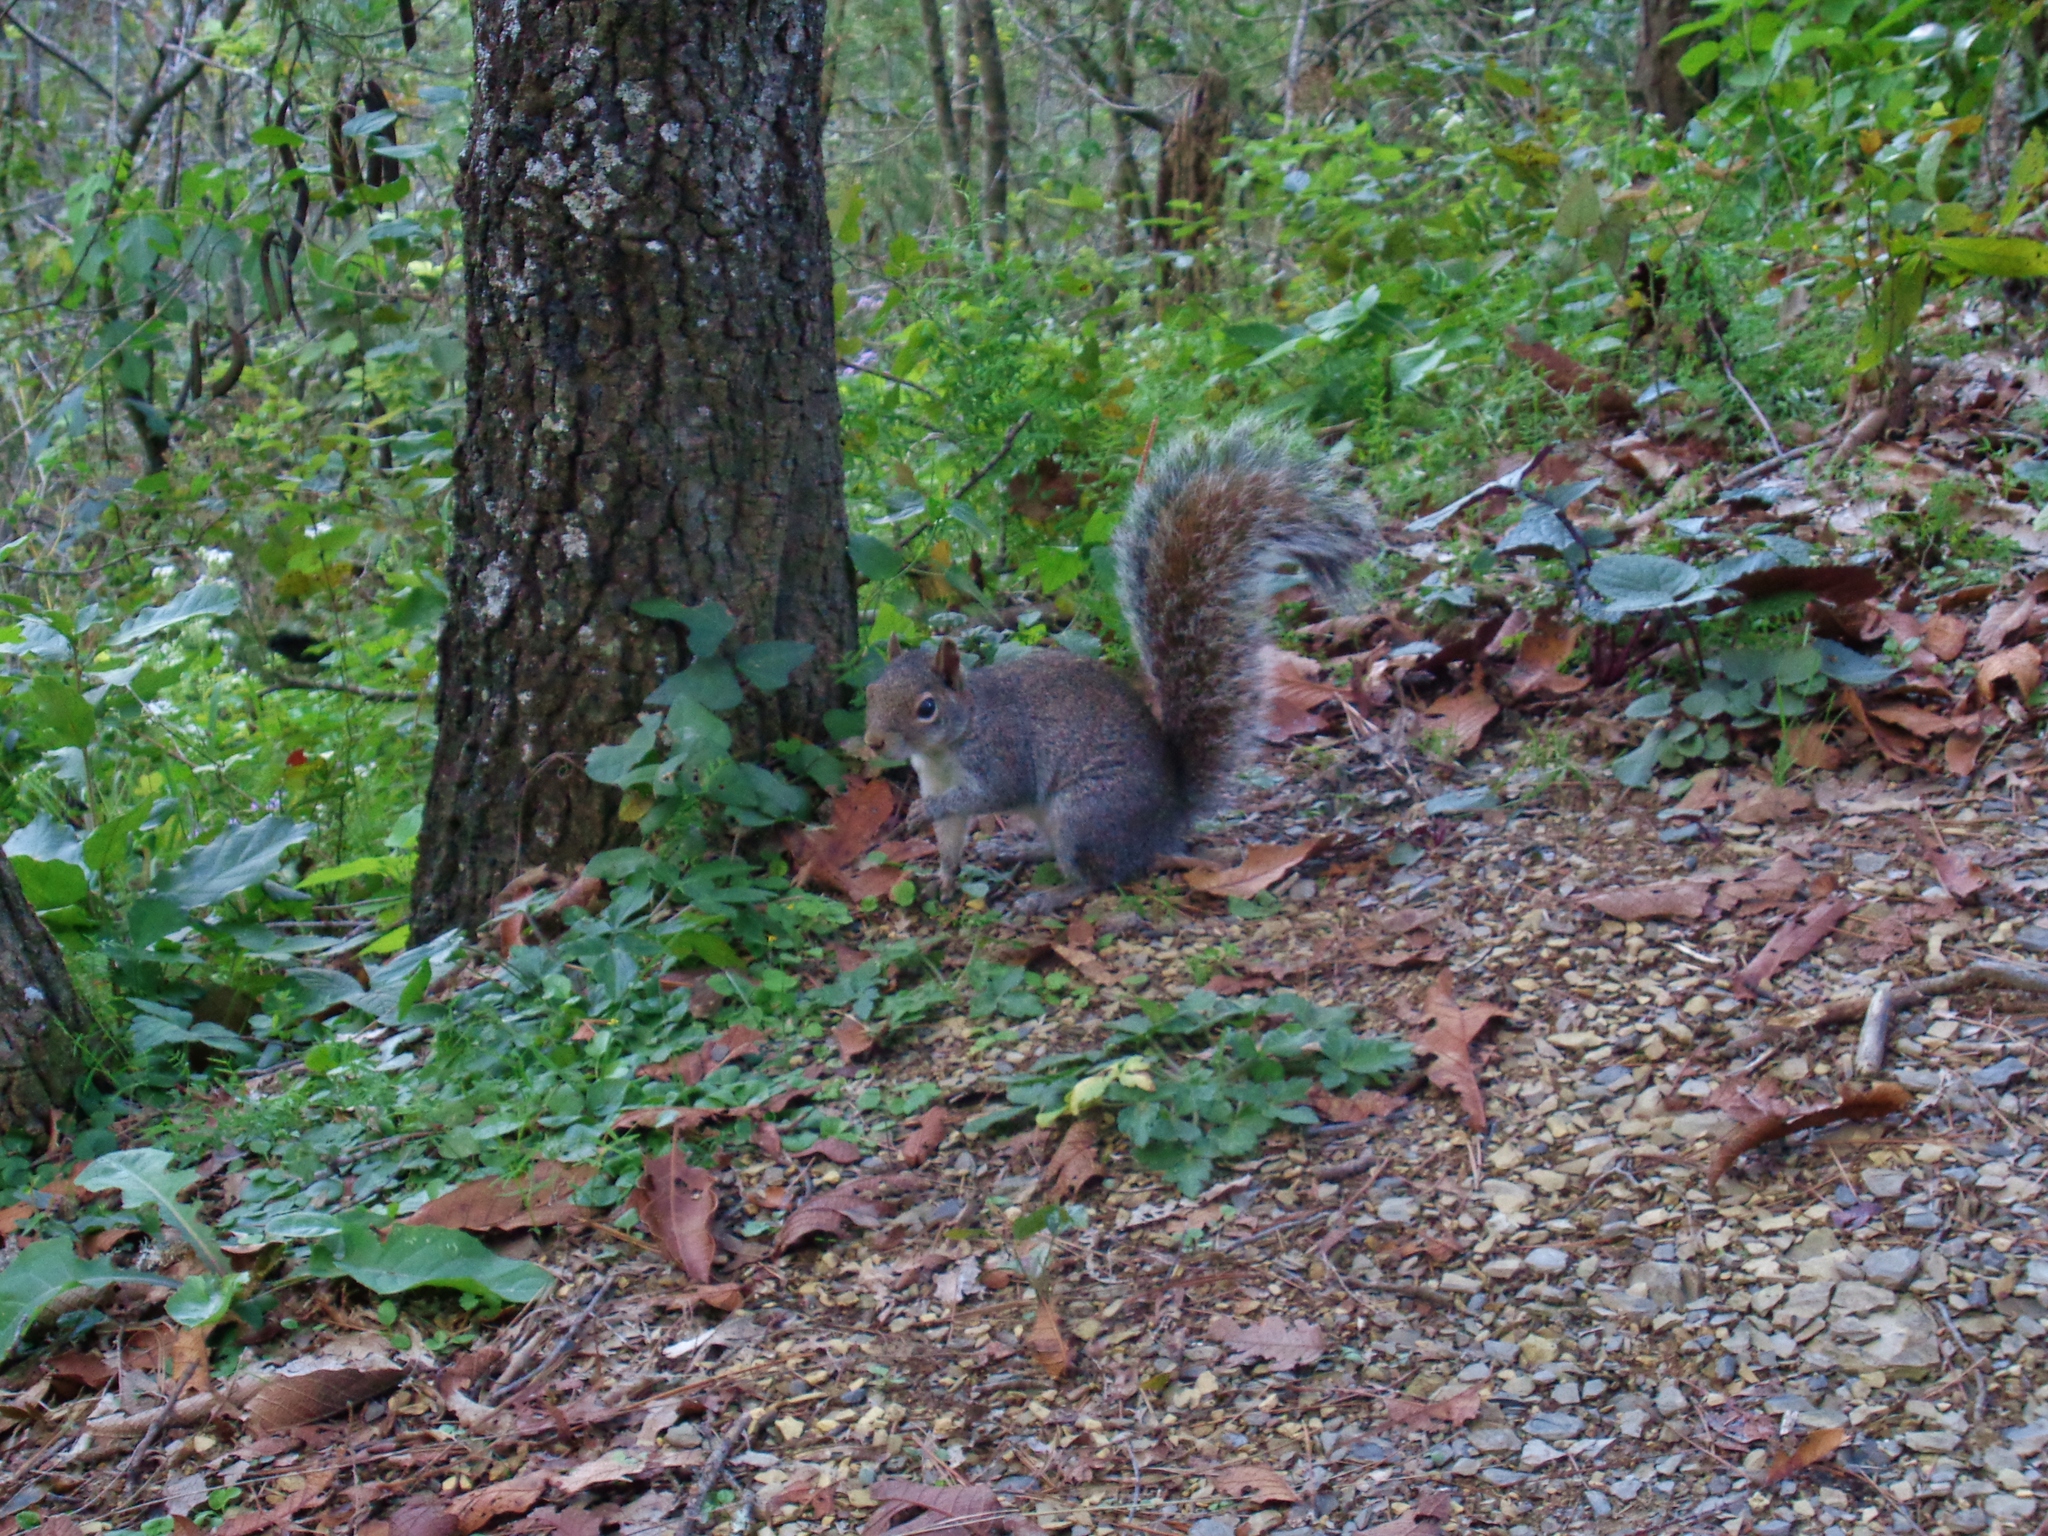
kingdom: Animalia
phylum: Chordata
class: Mammalia
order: Rodentia
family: Sciuridae
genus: Sciurus
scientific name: Sciurus alleni
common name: Allen's squirrel
